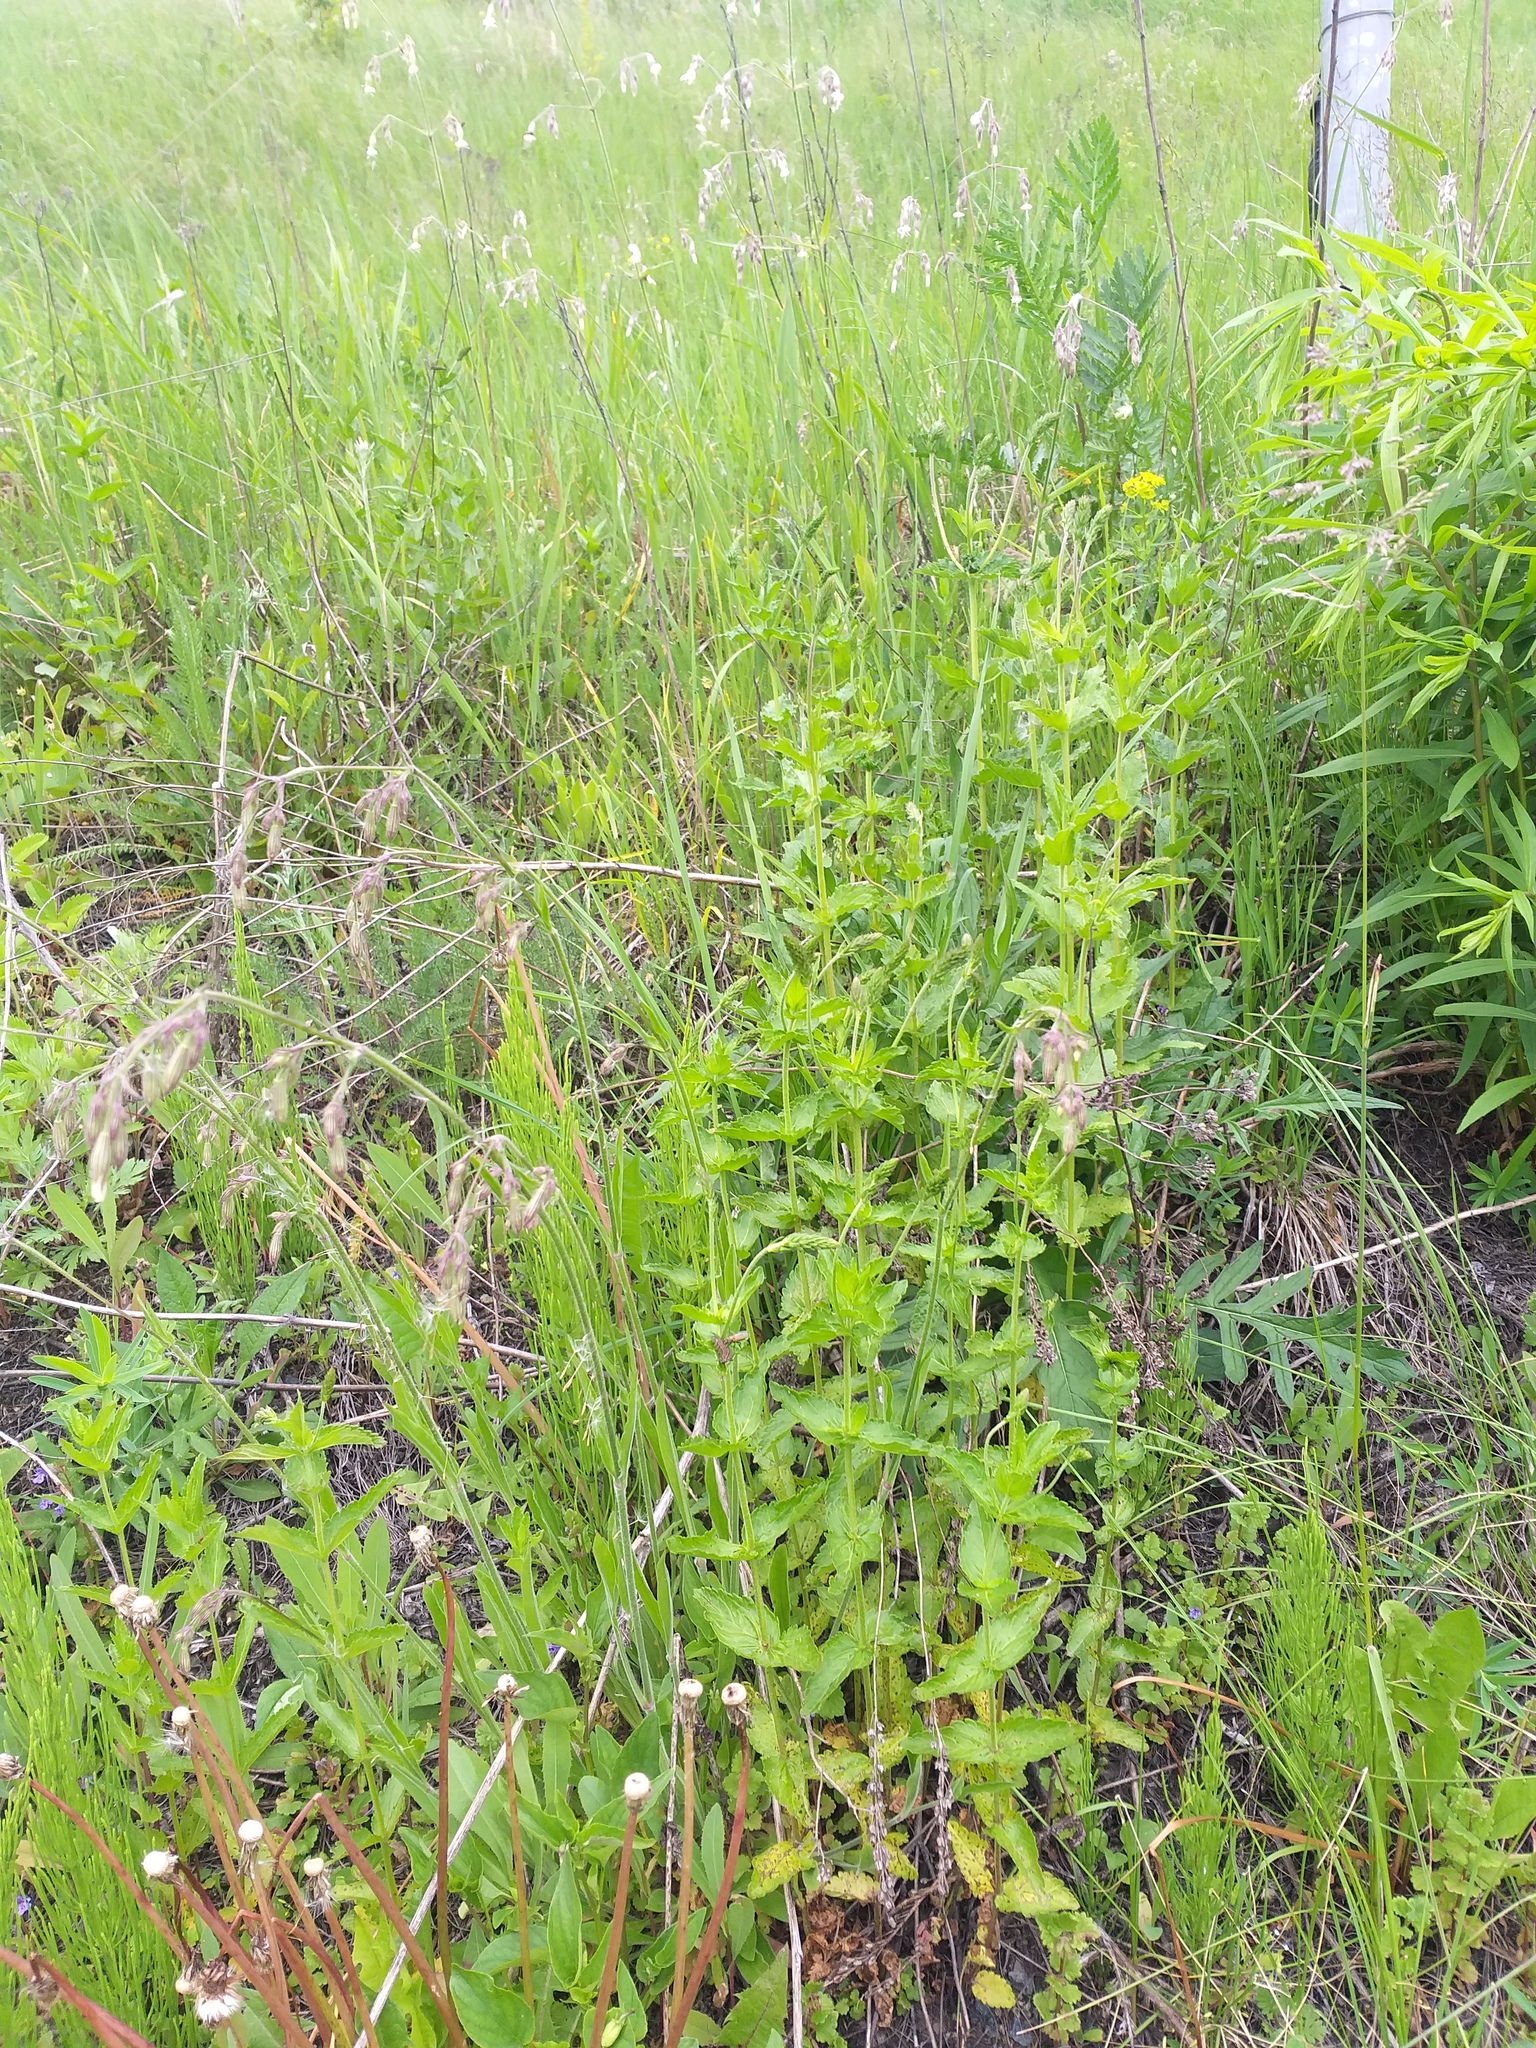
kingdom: Plantae
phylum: Tracheophyta
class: Magnoliopsida
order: Lamiales
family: Plantaginaceae
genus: Veronica
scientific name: Veronica teucrium
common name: Large speedwell
